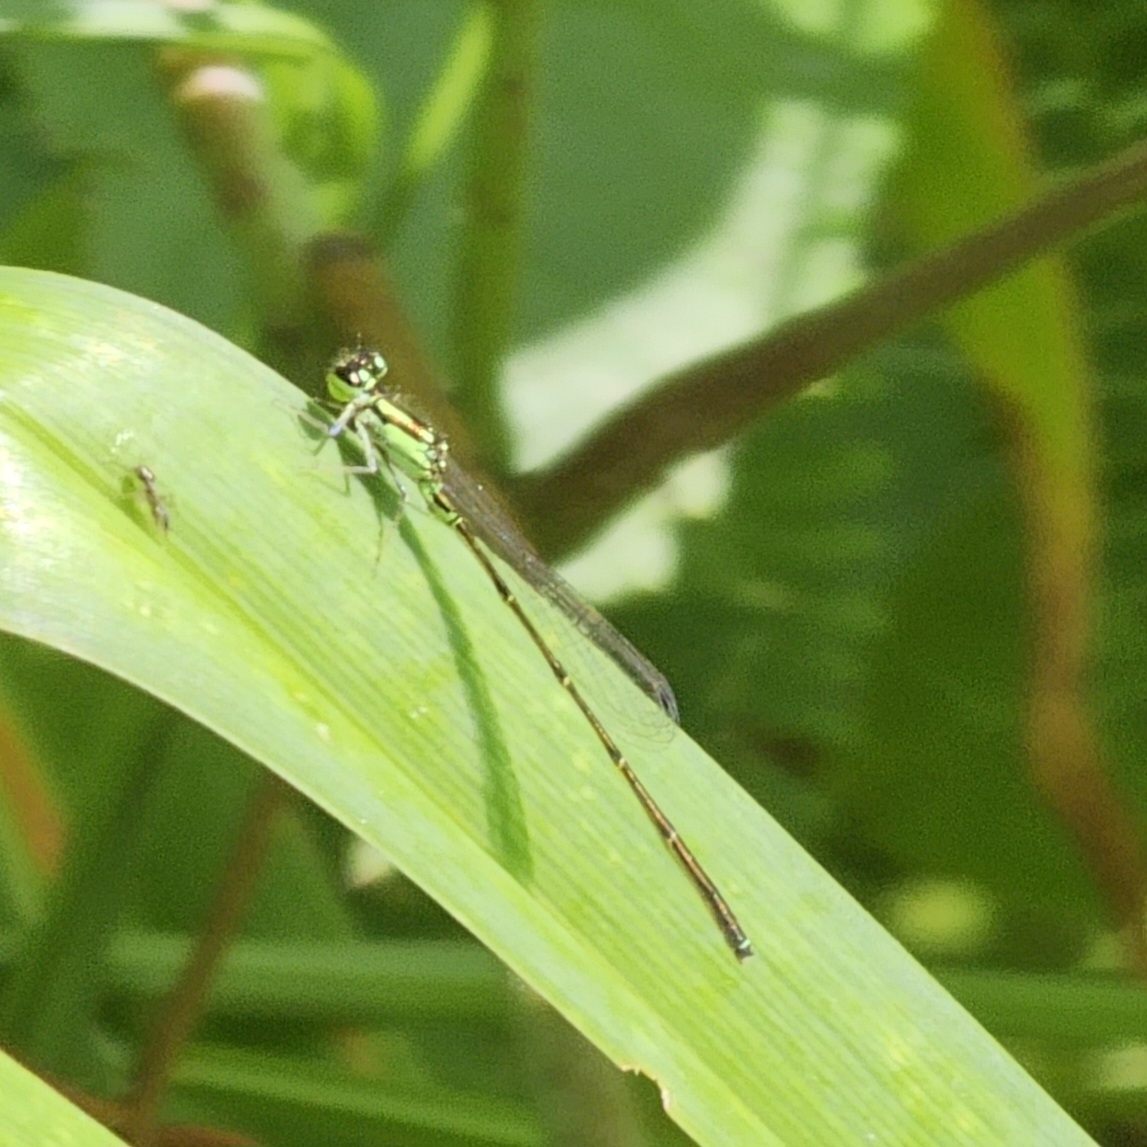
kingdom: Animalia
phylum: Arthropoda
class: Insecta
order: Odonata
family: Coenagrionidae
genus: Ischnura
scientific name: Ischnura posita
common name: Fragile forktail
